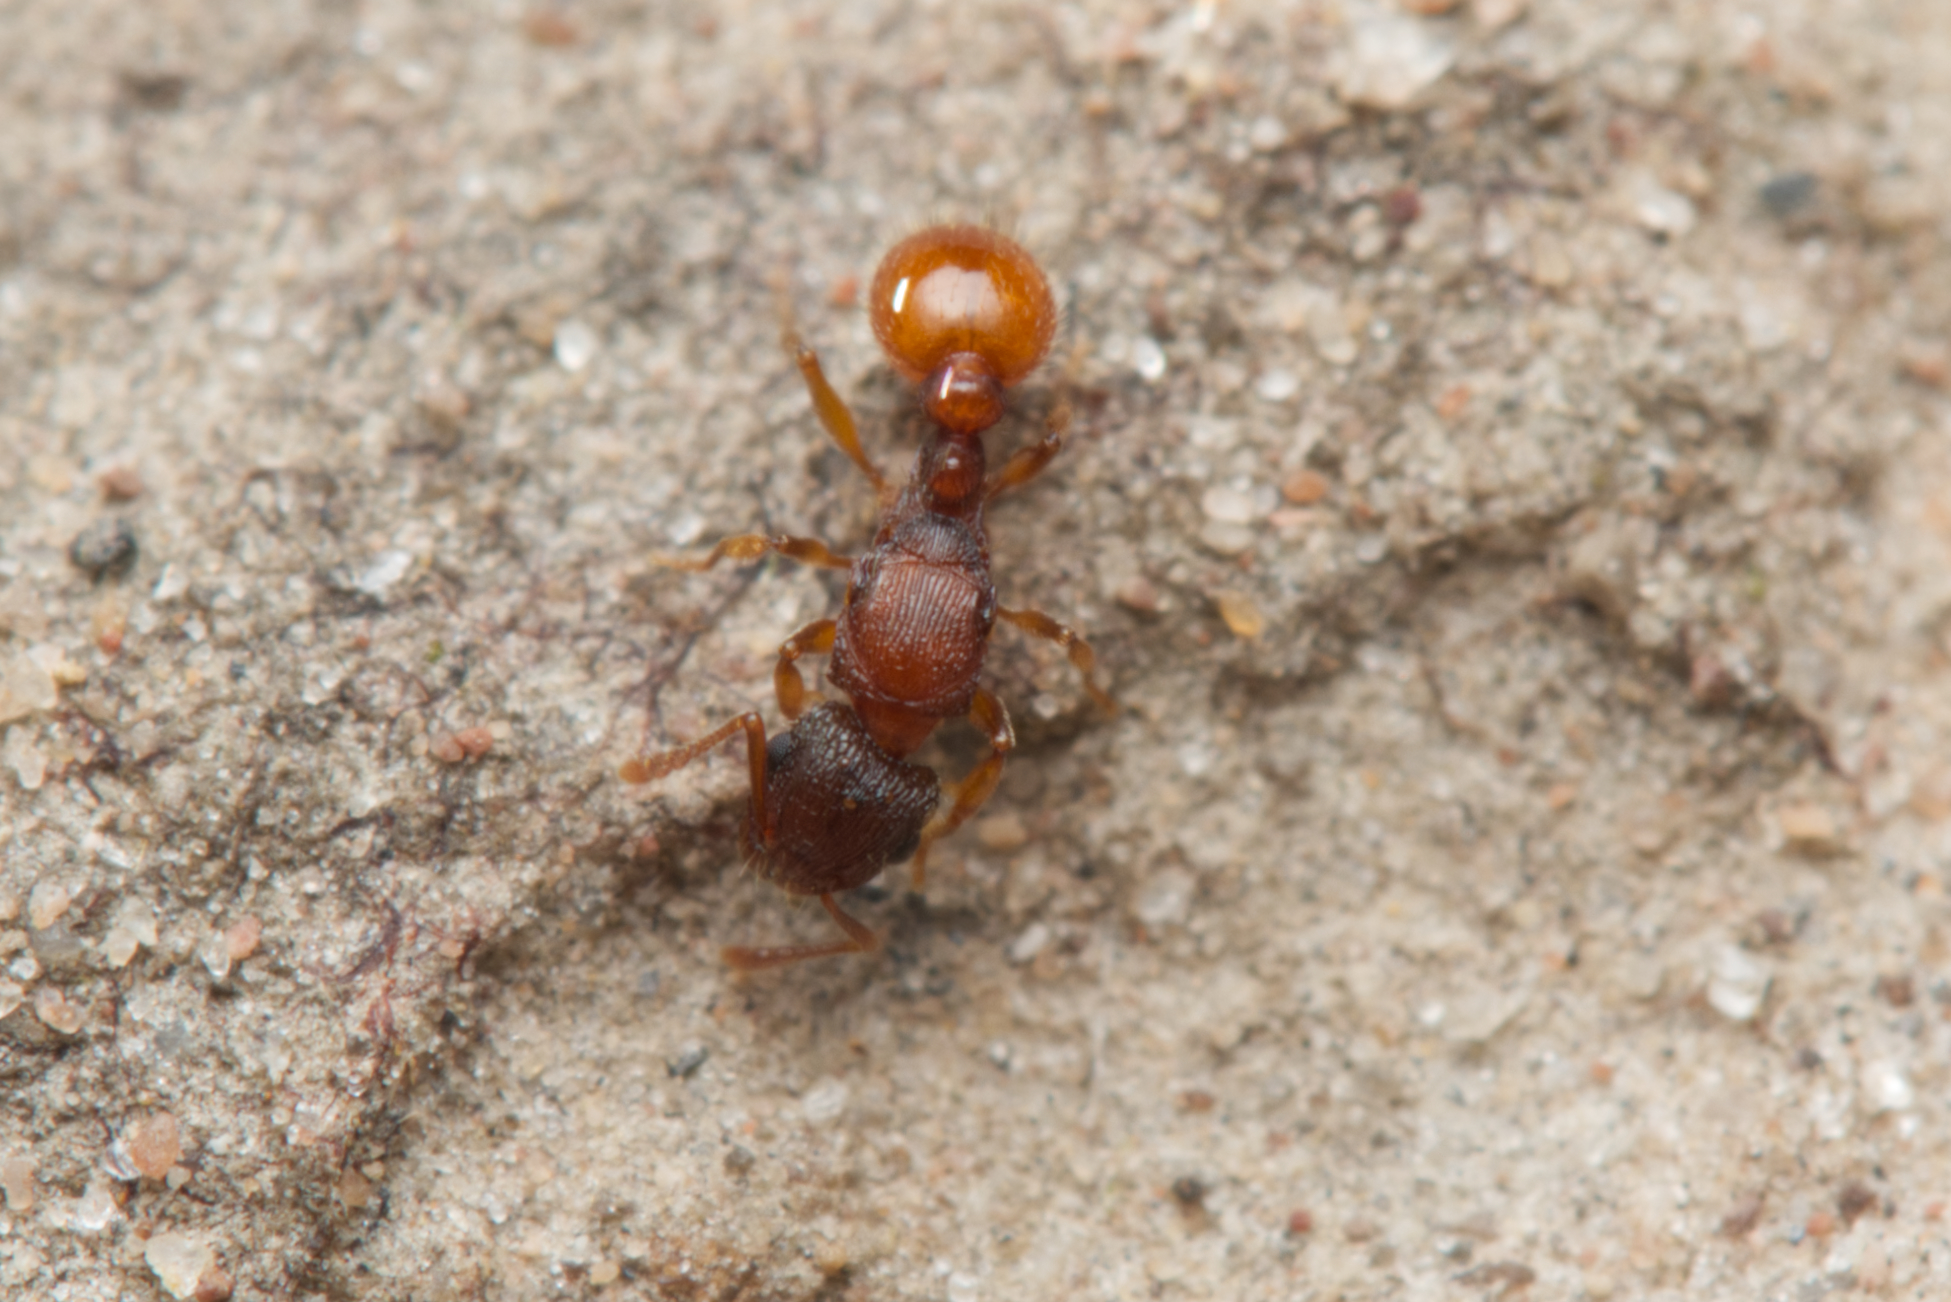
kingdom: Animalia
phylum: Arthropoda
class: Insecta
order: Hymenoptera
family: Formicidae
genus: Tetramorium
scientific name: Tetramorium fuscipes
